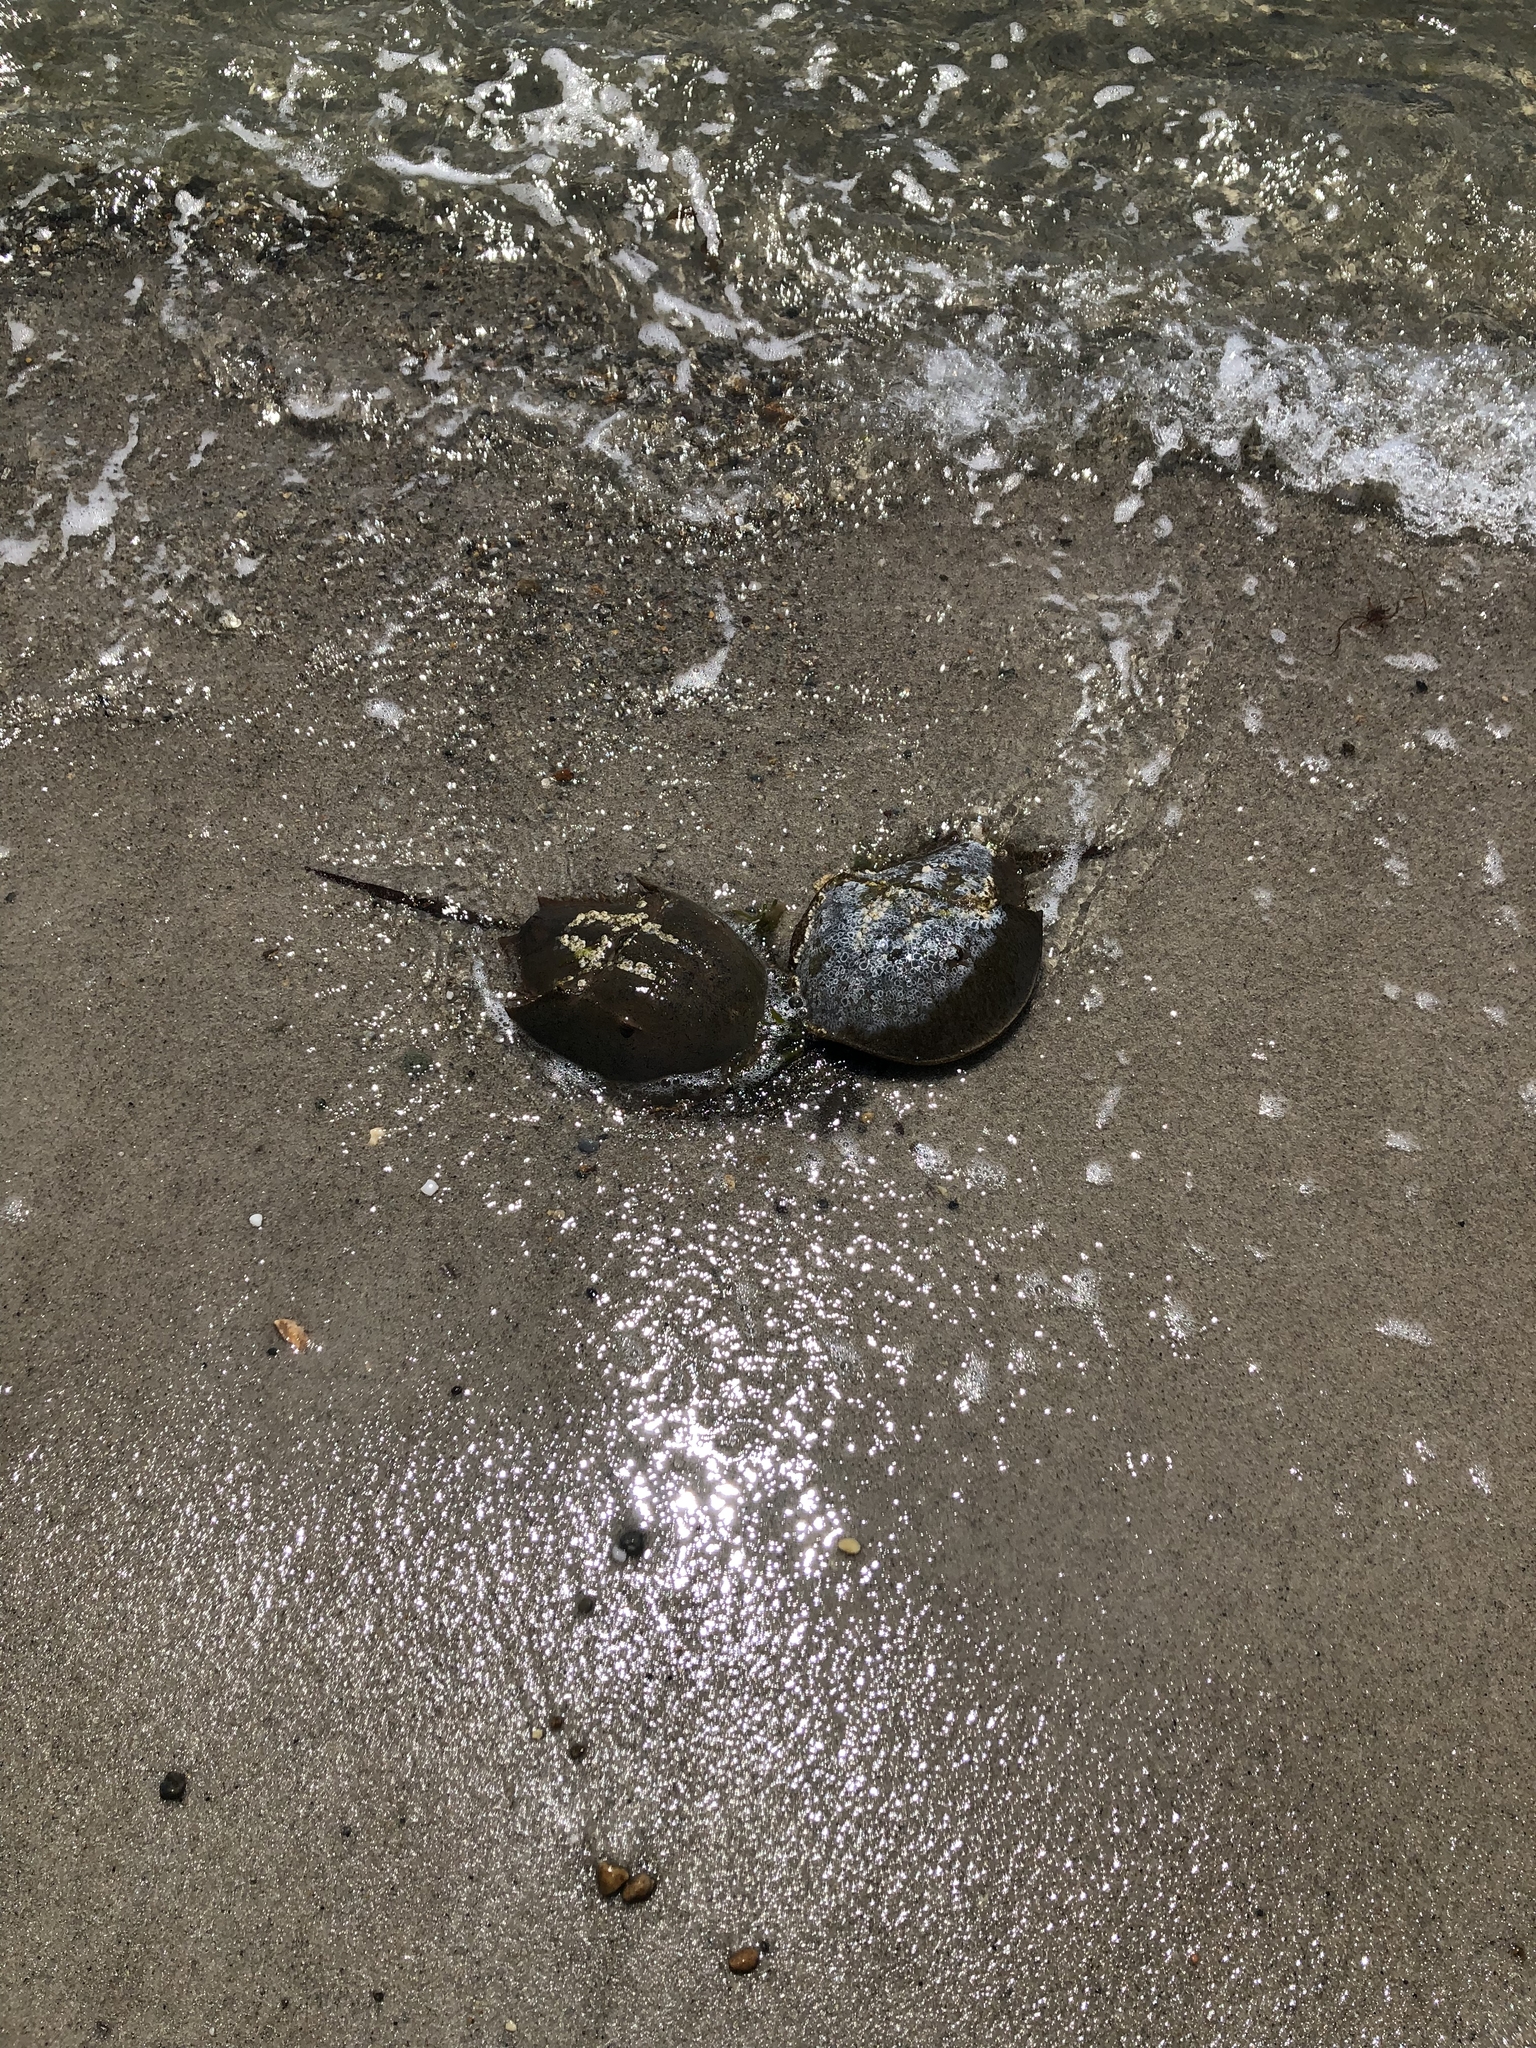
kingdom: Animalia
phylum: Arthropoda
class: Merostomata
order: Xiphosurida
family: Limulidae
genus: Limulus
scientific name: Limulus polyphemus
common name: Horseshoe crab
